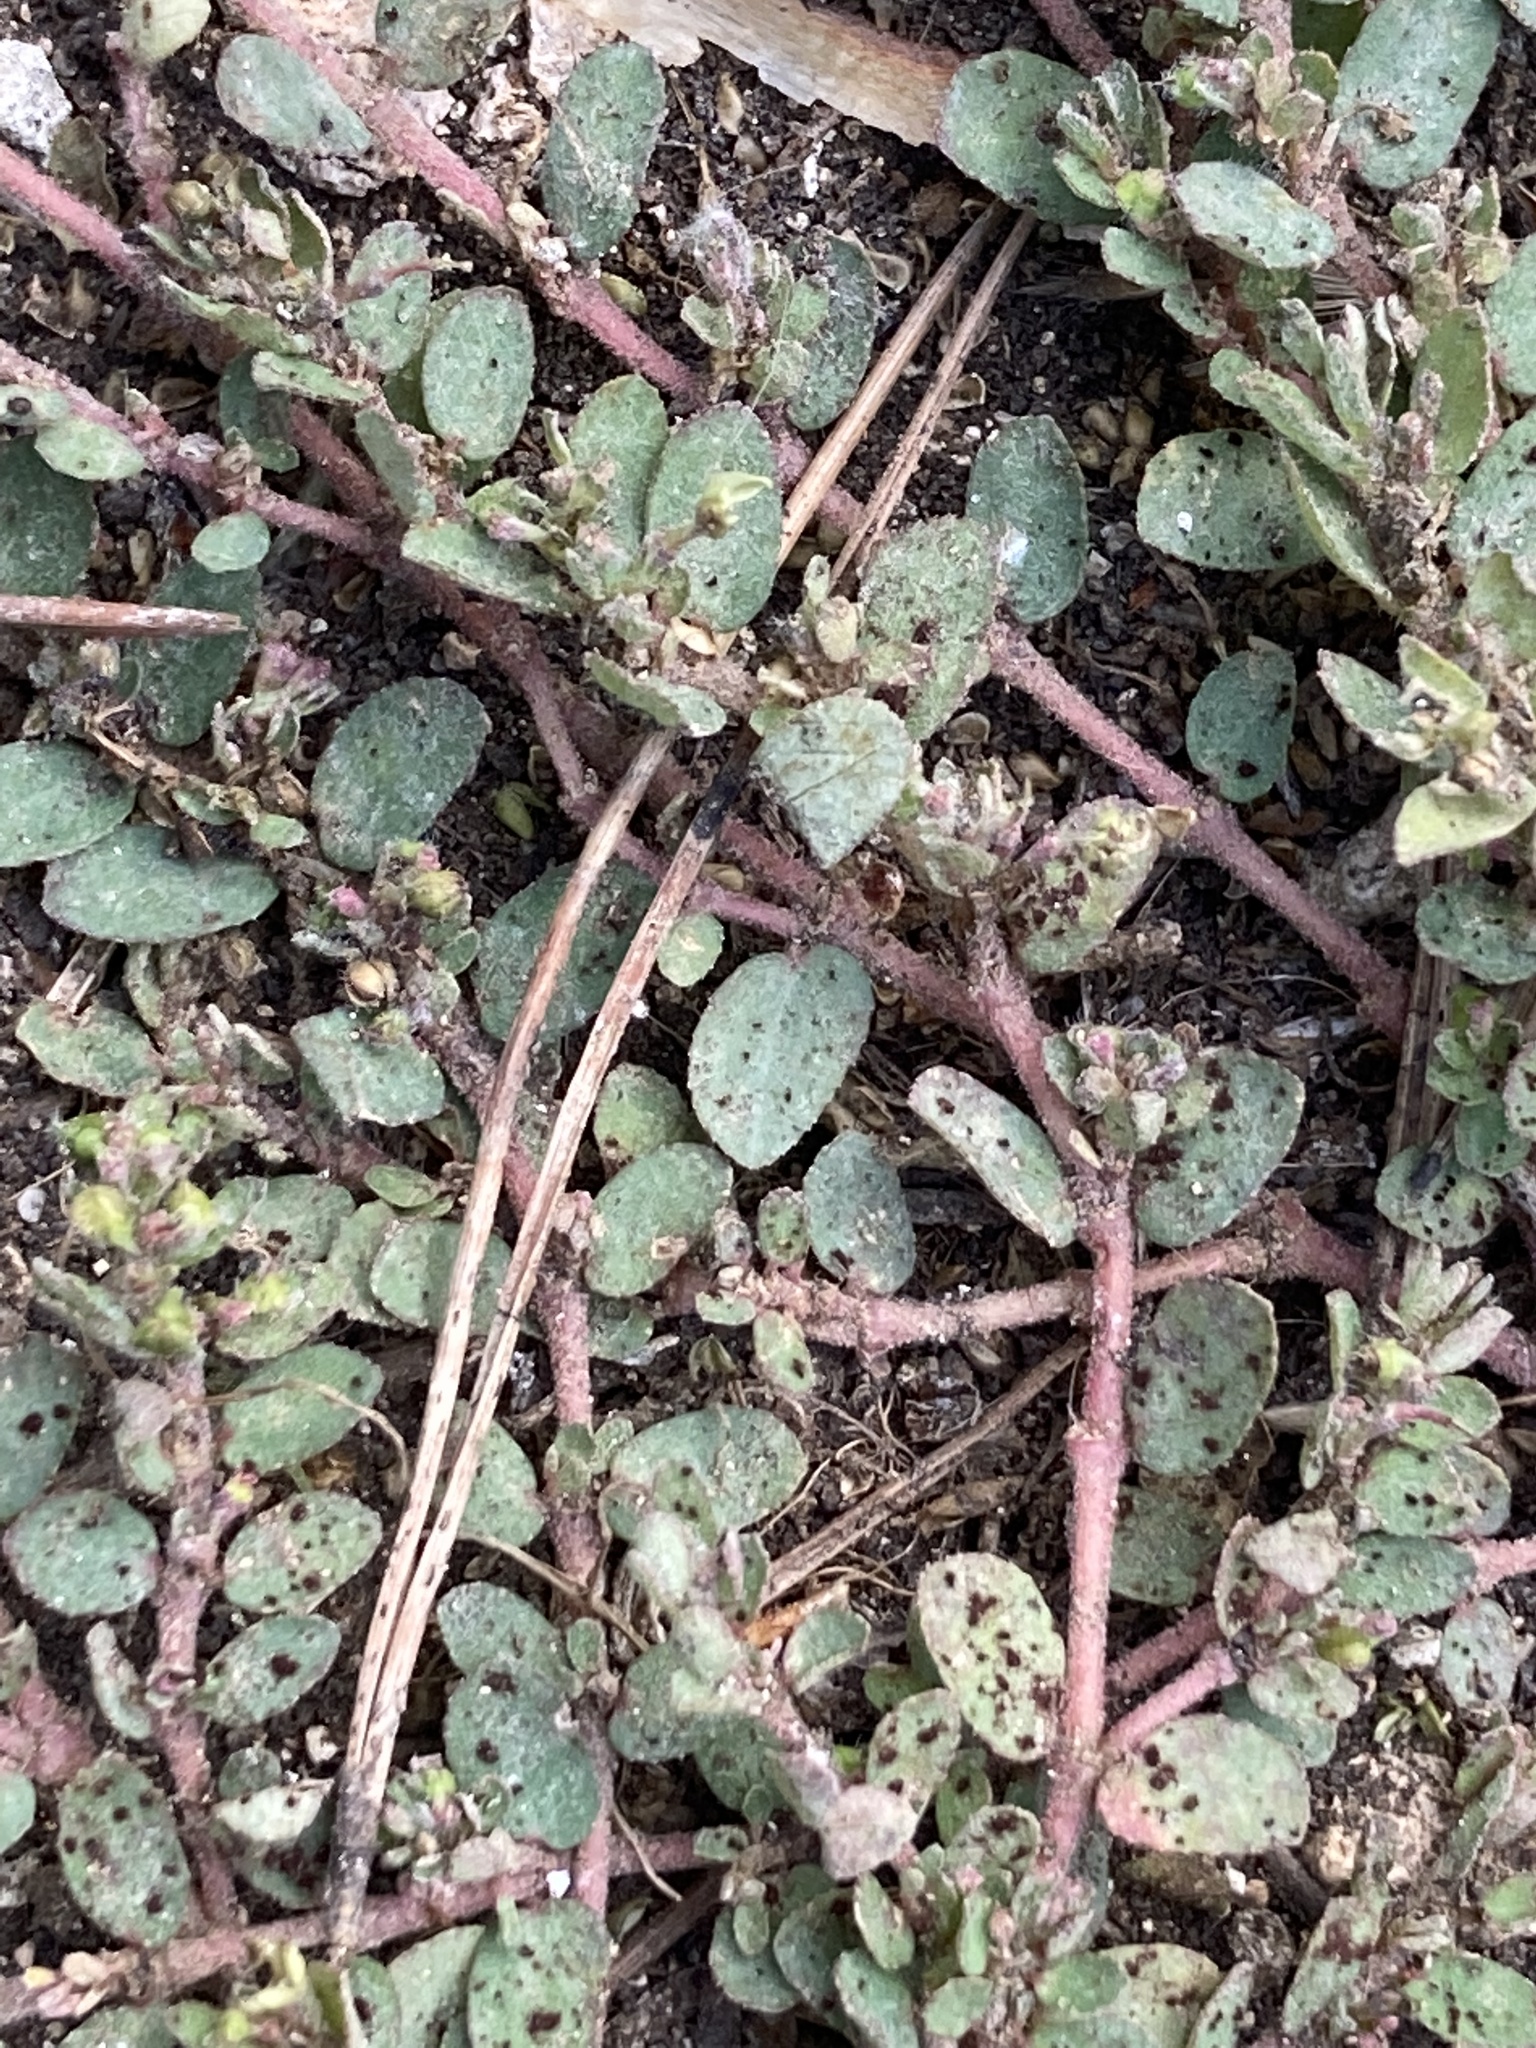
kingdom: Plantae
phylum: Tracheophyta
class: Magnoliopsida
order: Malpighiales
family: Euphorbiaceae
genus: Euphorbia
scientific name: Euphorbia prostrata
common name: Prostrate sandmat
